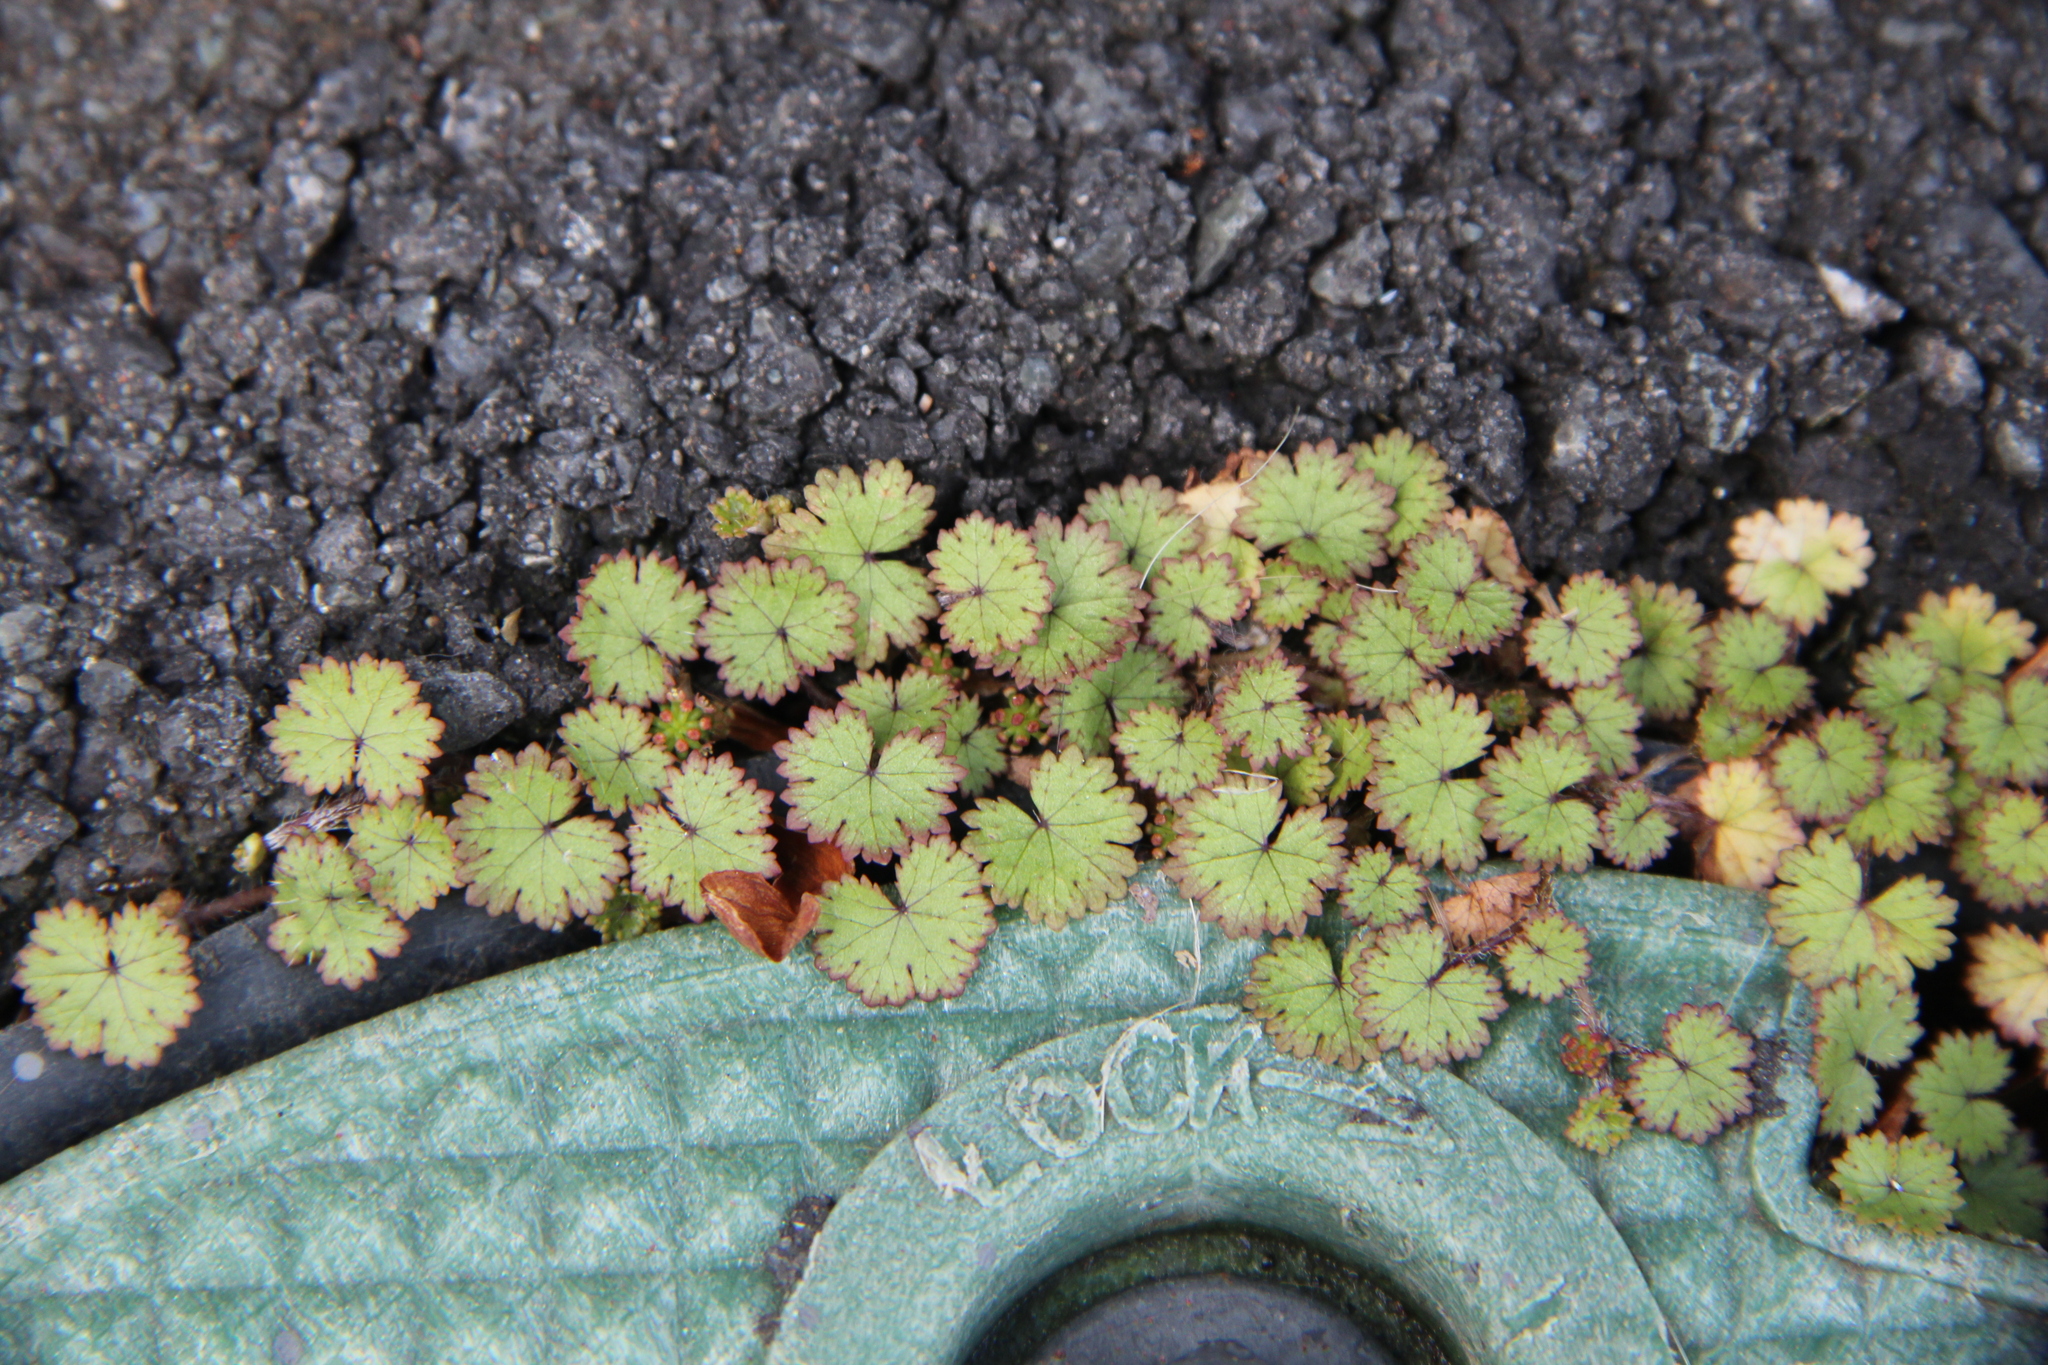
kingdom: Plantae
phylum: Tracheophyta
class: Magnoliopsida
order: Apiales
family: Araliaceae
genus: Hydrocotyle
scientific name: Hydrocotyle moschata
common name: Hairy pennywort
